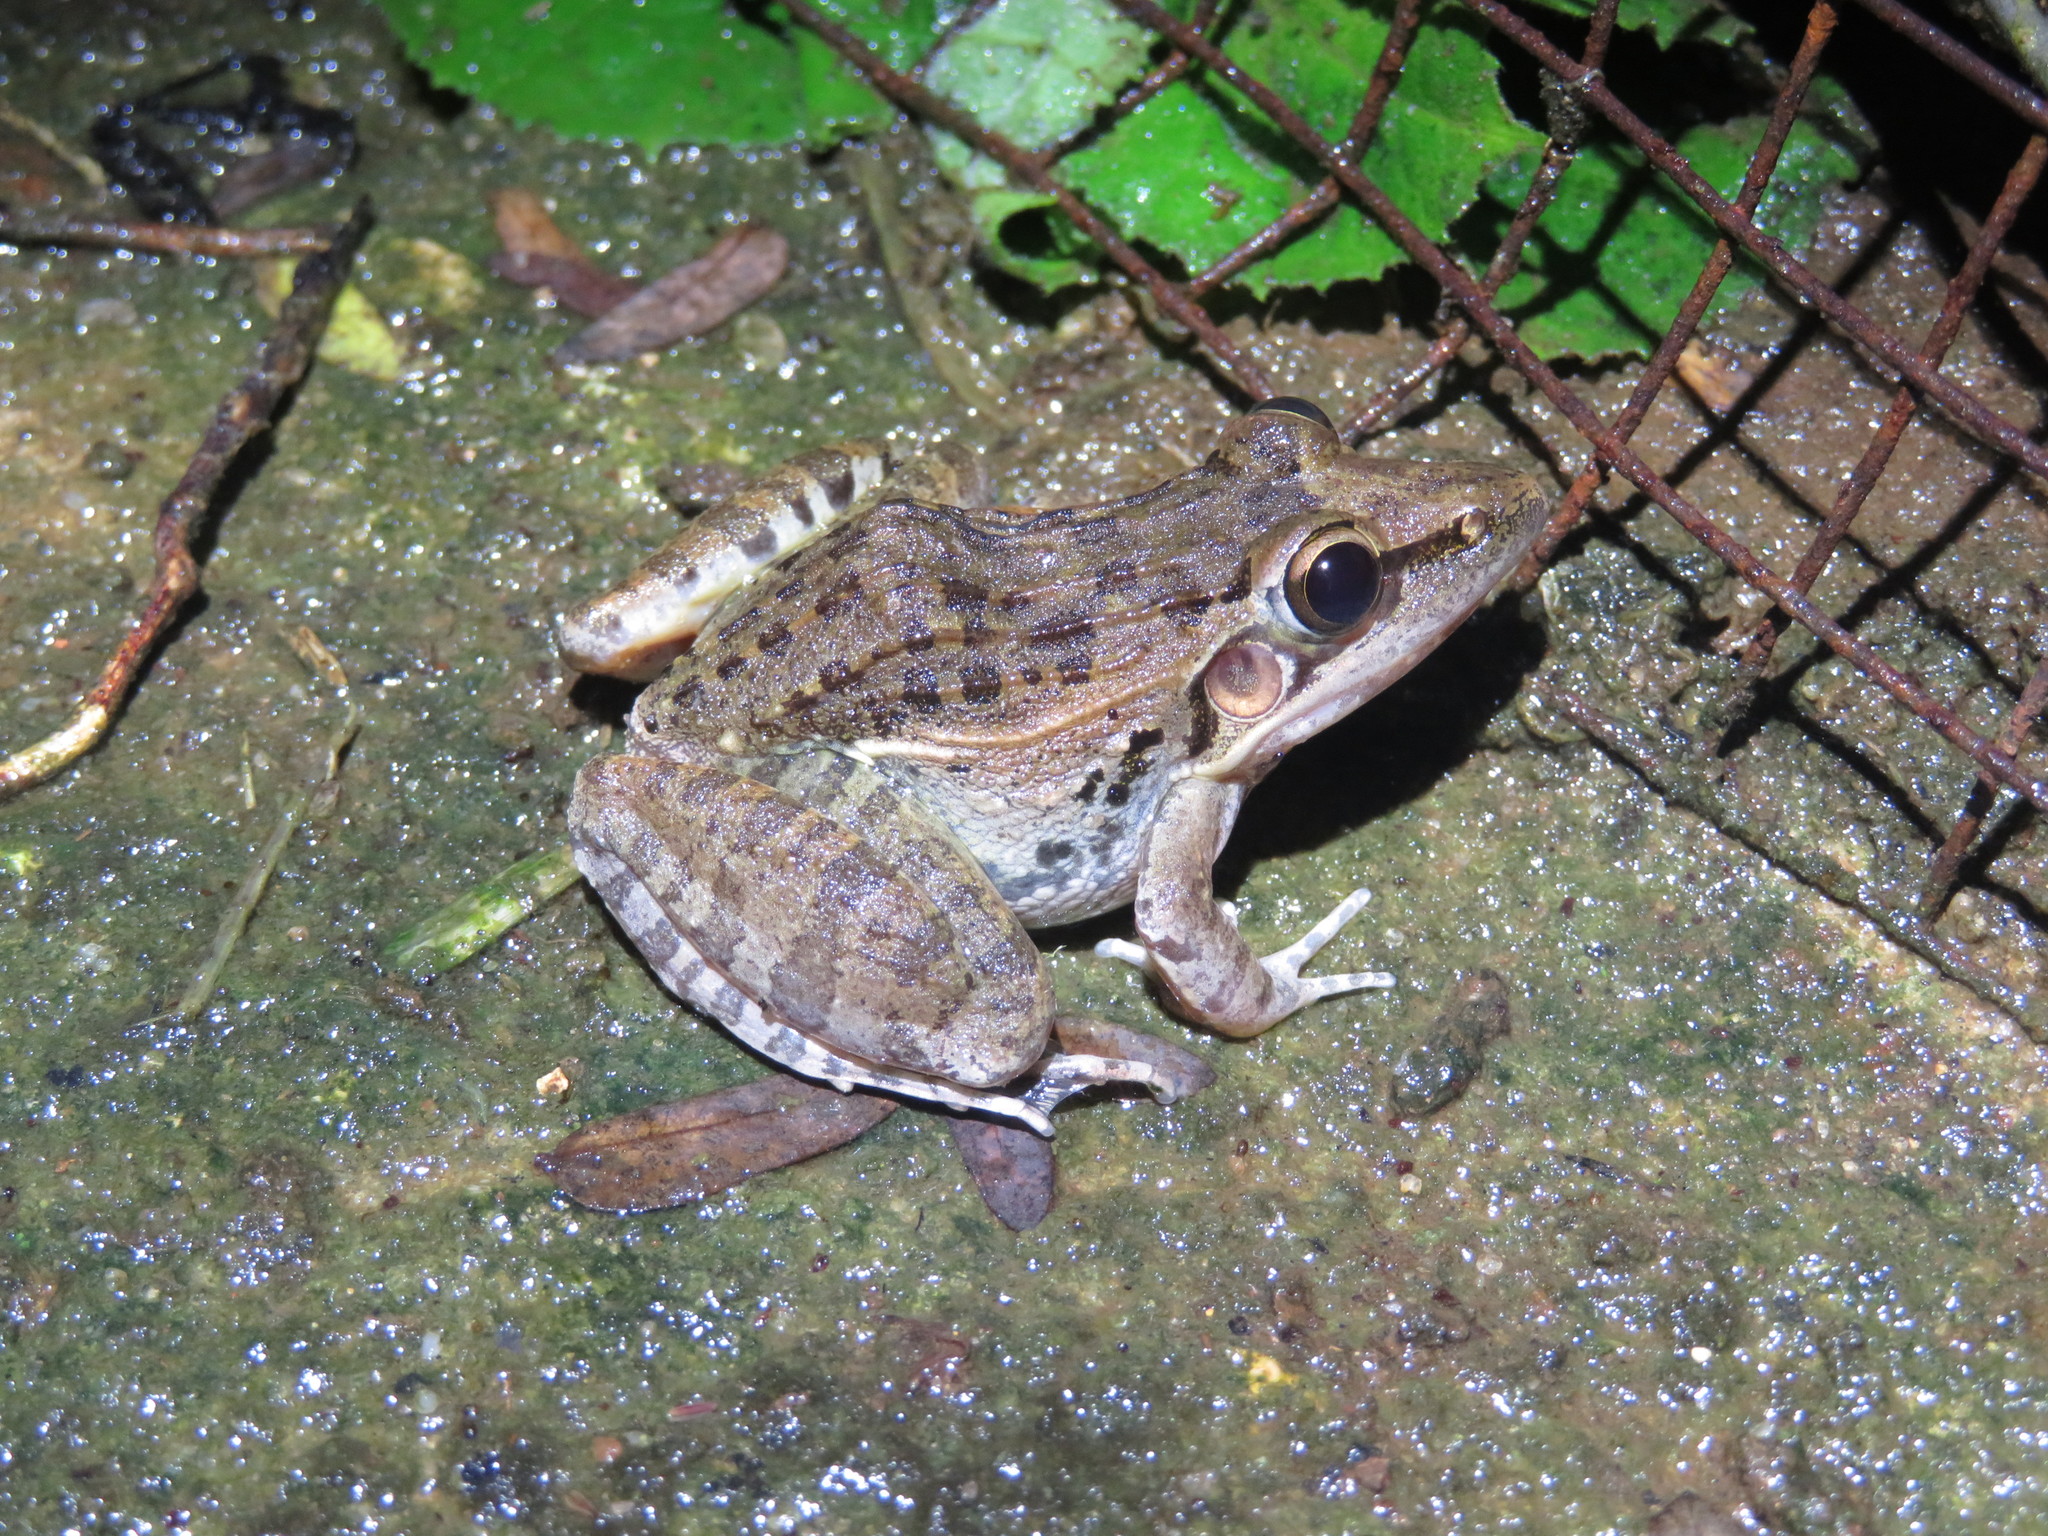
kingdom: Animalia
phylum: Chordata
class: Amphibia
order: Anura
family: Ptychadenidae
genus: Ptychadena
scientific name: Ptychadena anchietae
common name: Anchieta's ridged frog
